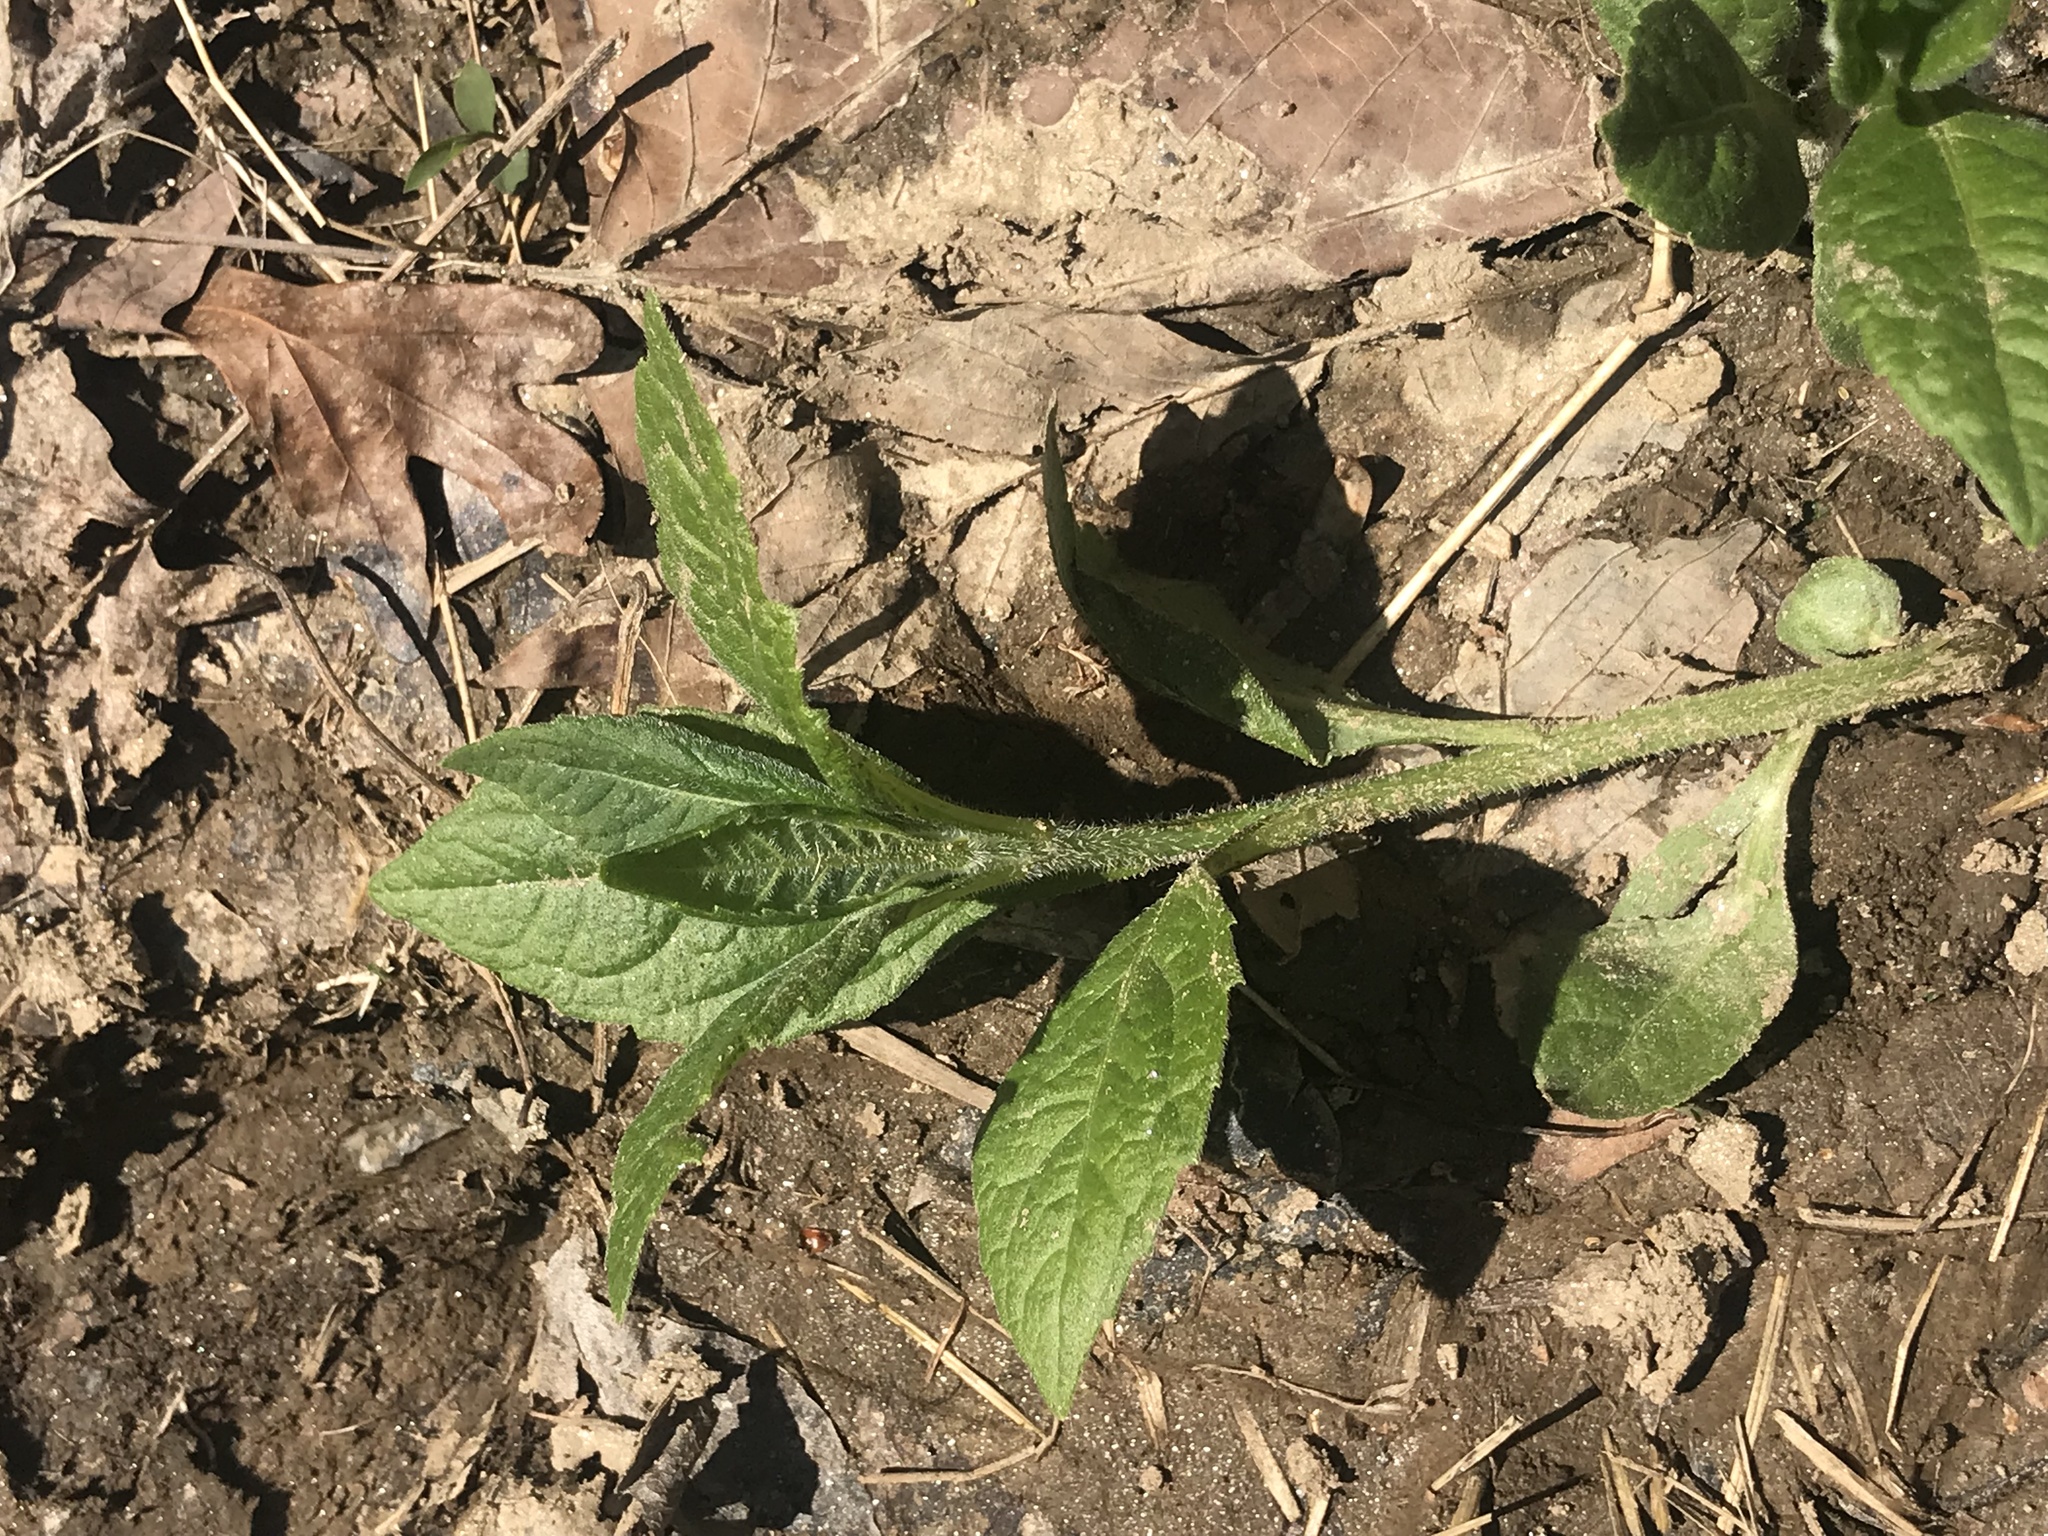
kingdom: Plantae
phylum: Tracheophyta
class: Magnoliopsida
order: Asterales
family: Asteraceae
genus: Verbesina
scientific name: Verbesina alternifolia
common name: Wingstem
